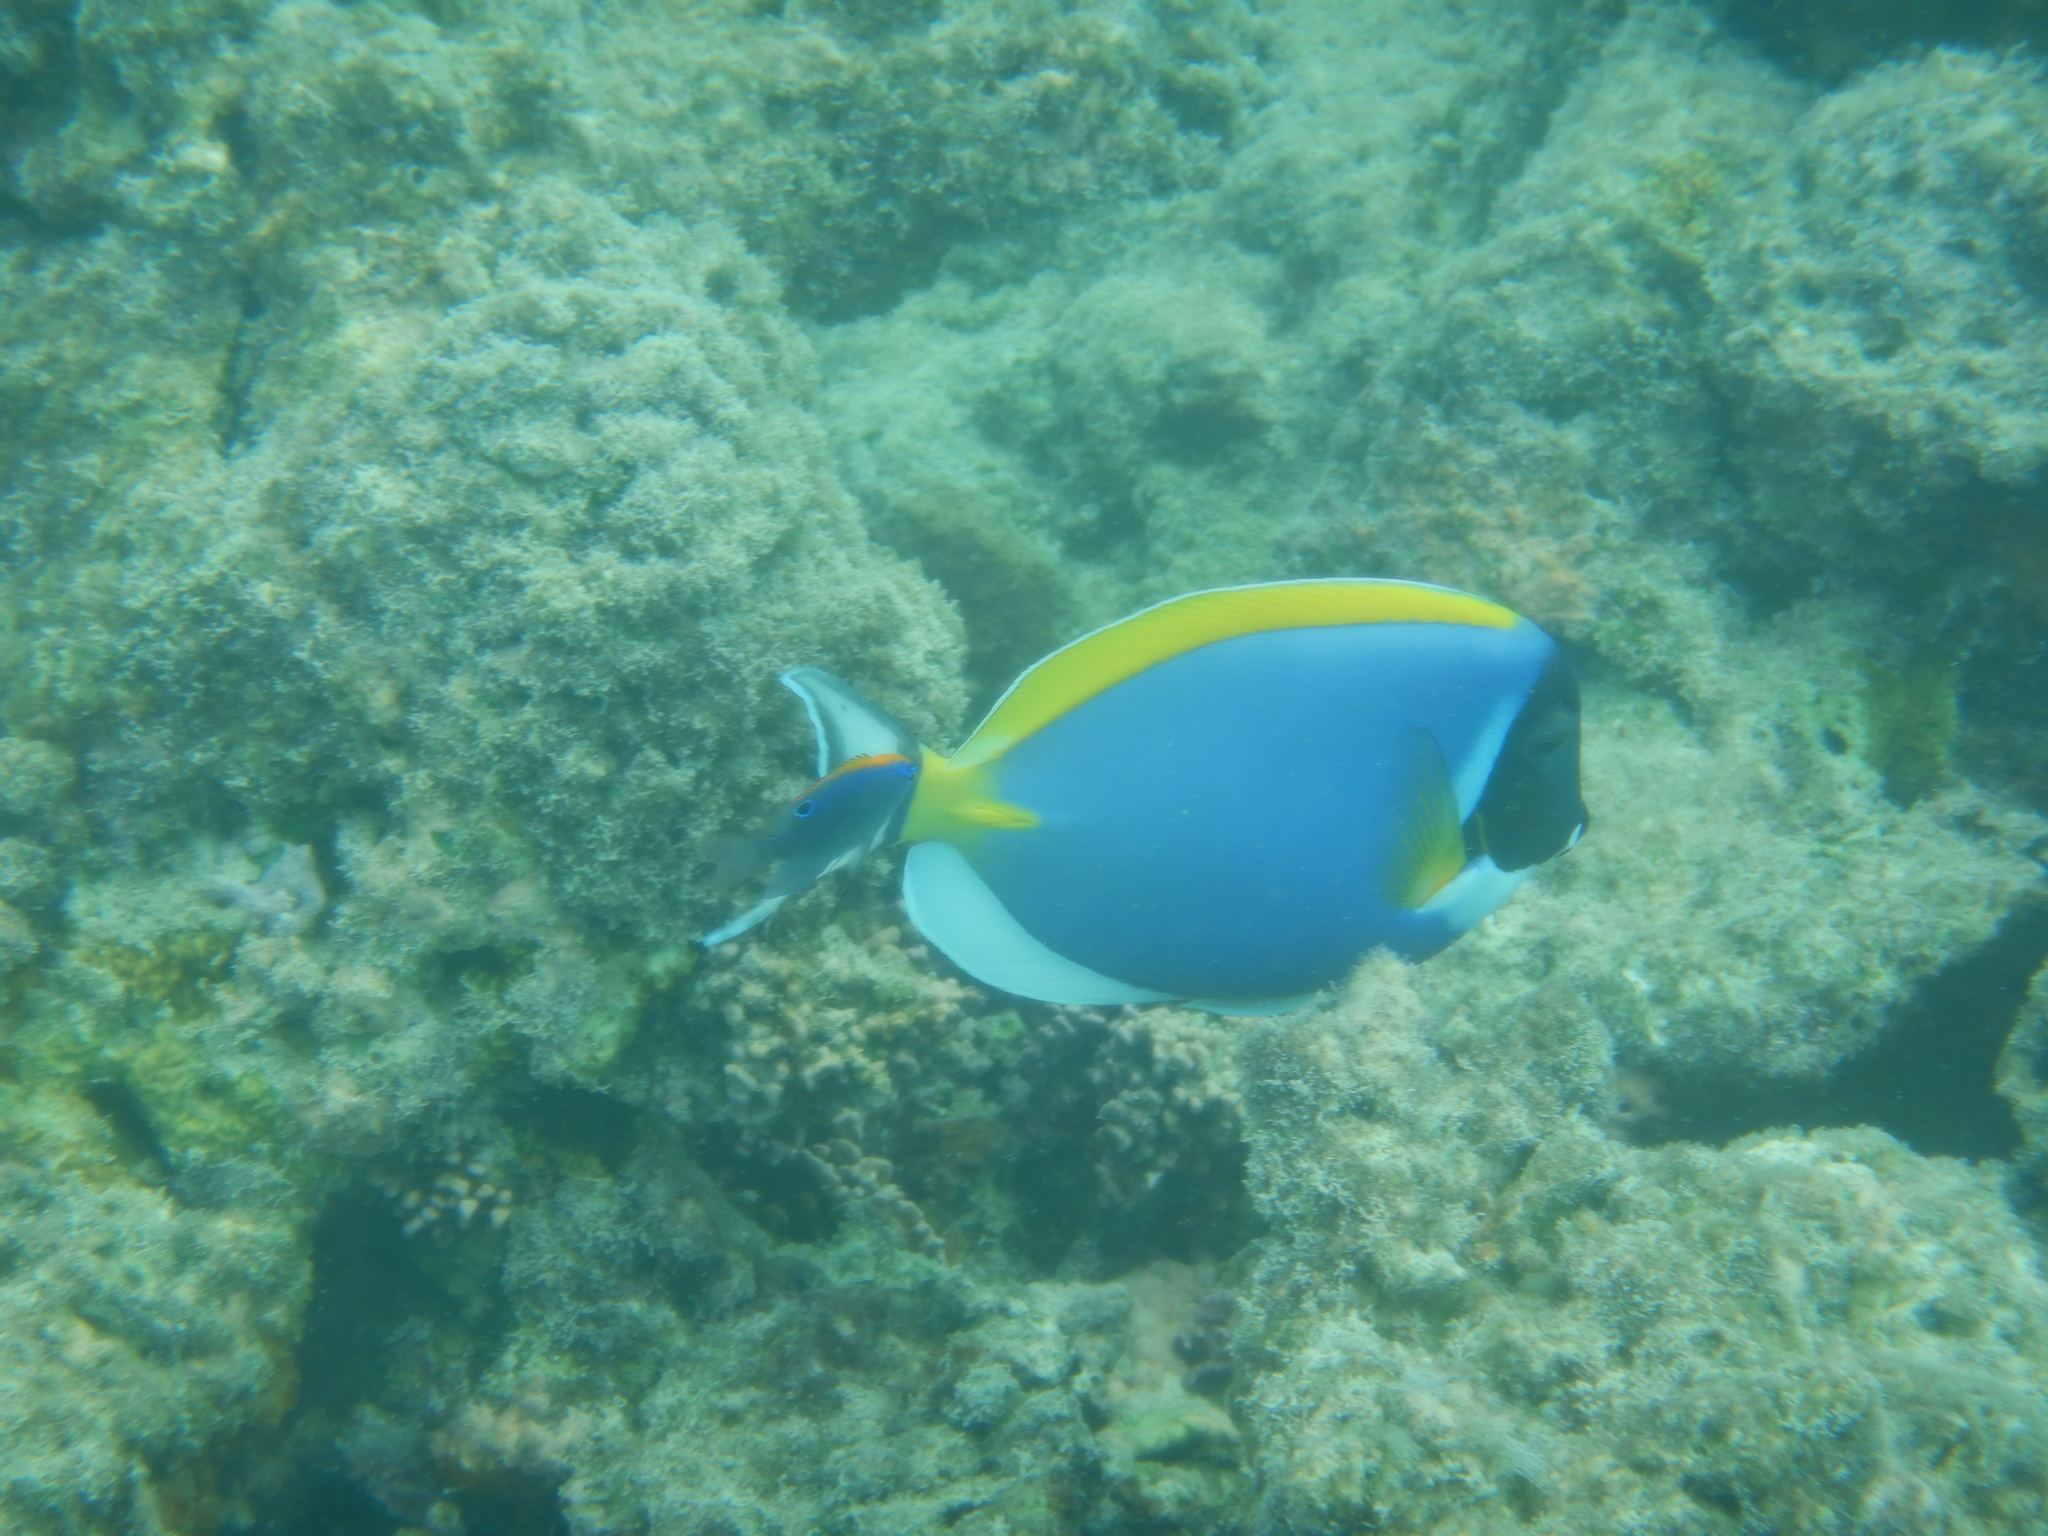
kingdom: Animalia
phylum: Chordata
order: Perciformes
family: Acanthuridae
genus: Acanthurus
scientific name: Acanthurus leucosternon
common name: Blue surgeonfish
